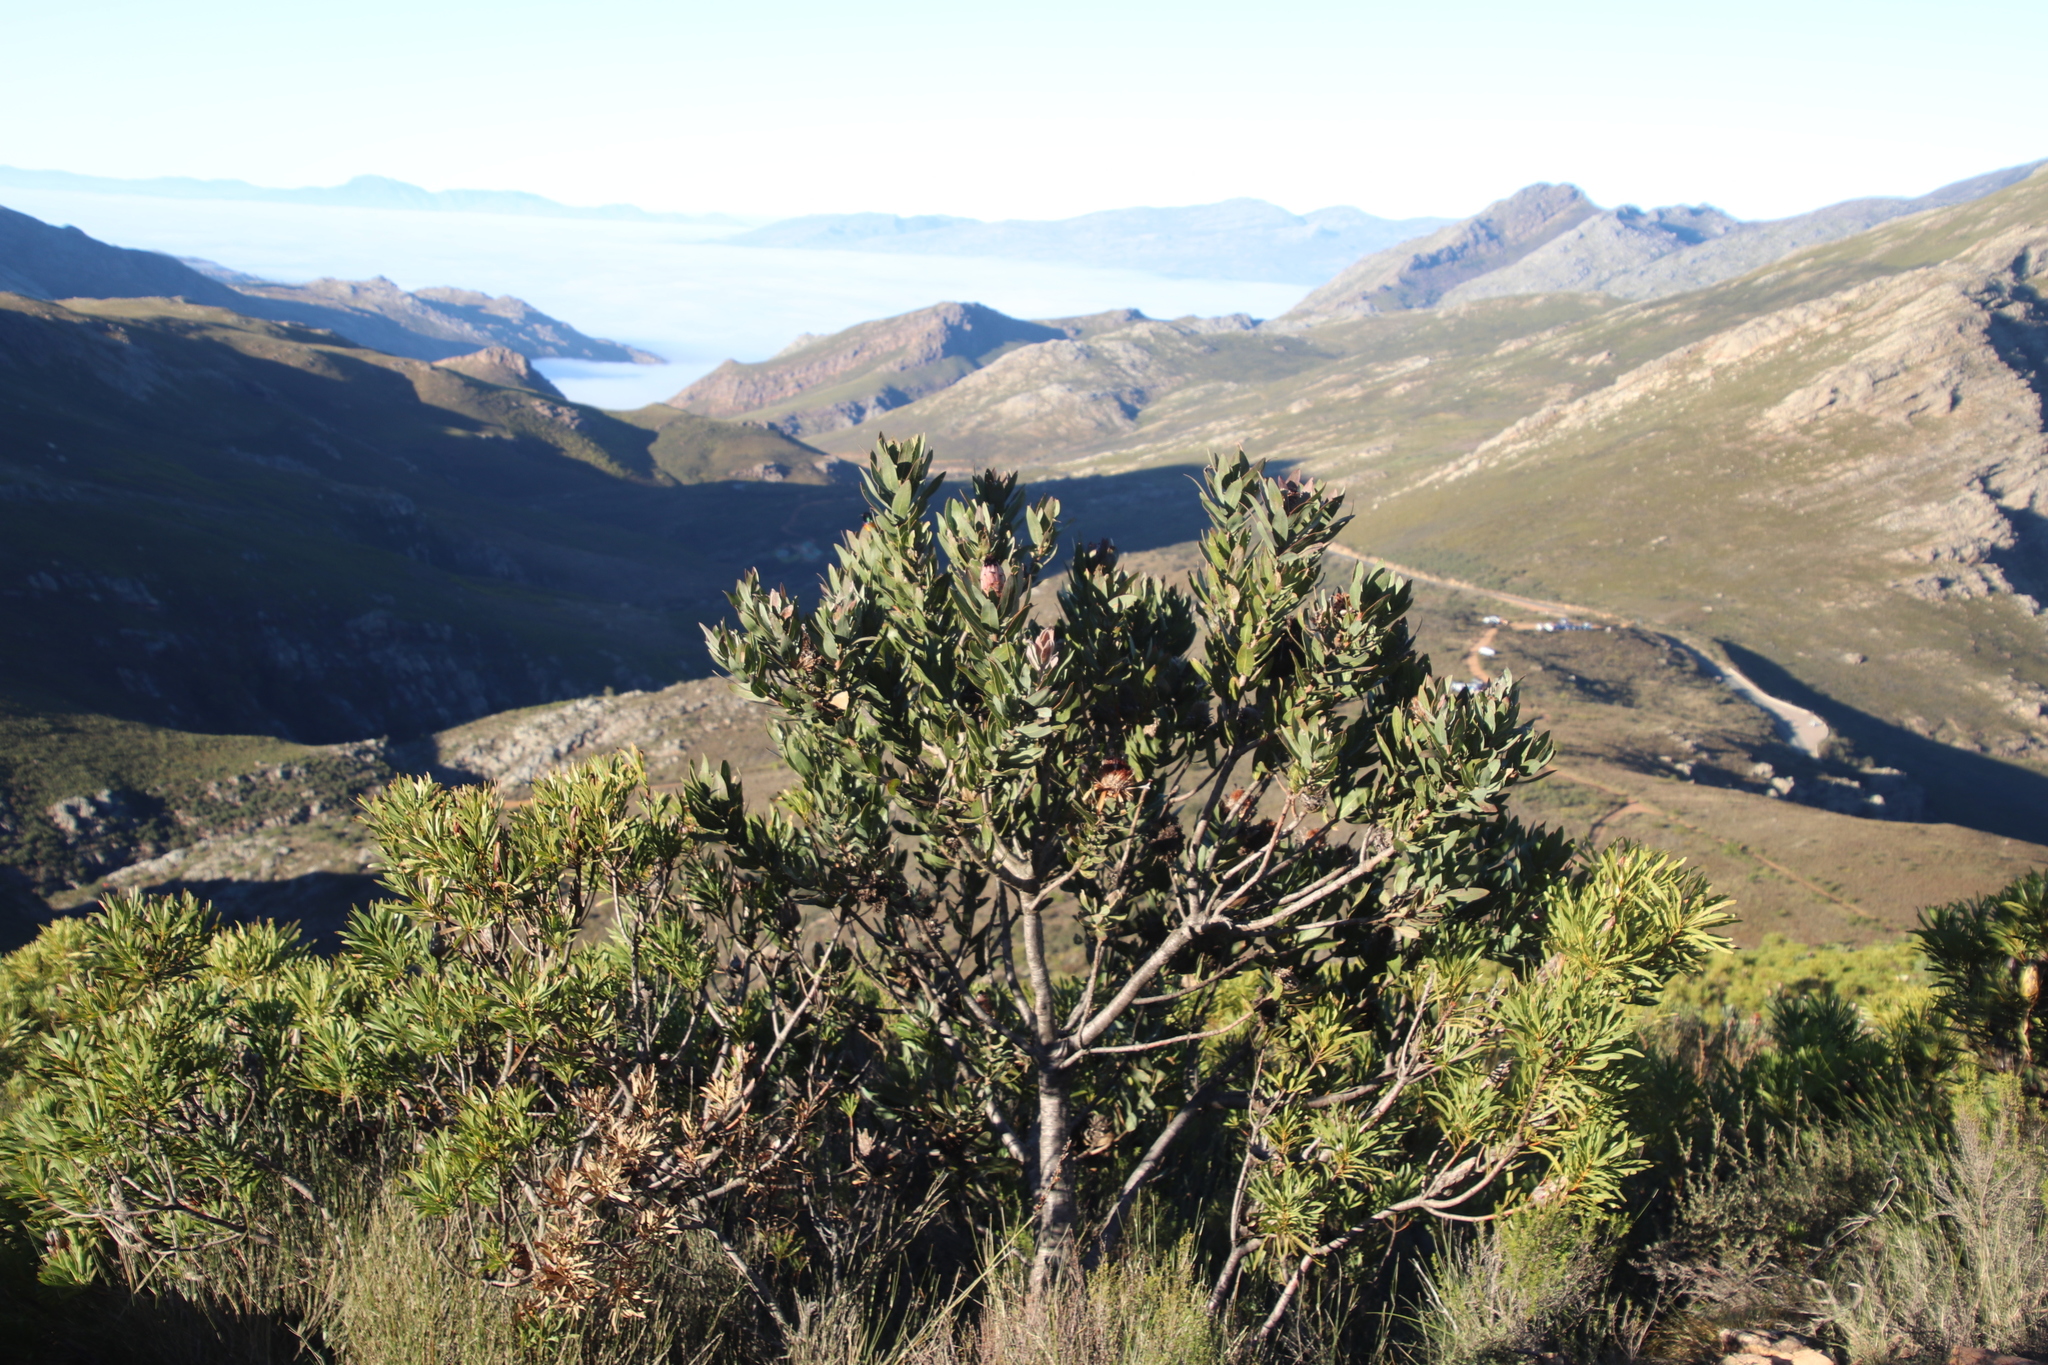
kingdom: Plantae
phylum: Tracheophyta
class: Magnoliopsida
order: Proteales
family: Proteaceae
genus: Protea
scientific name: Protea laurifolia
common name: Grey-leaf sugarbsh
